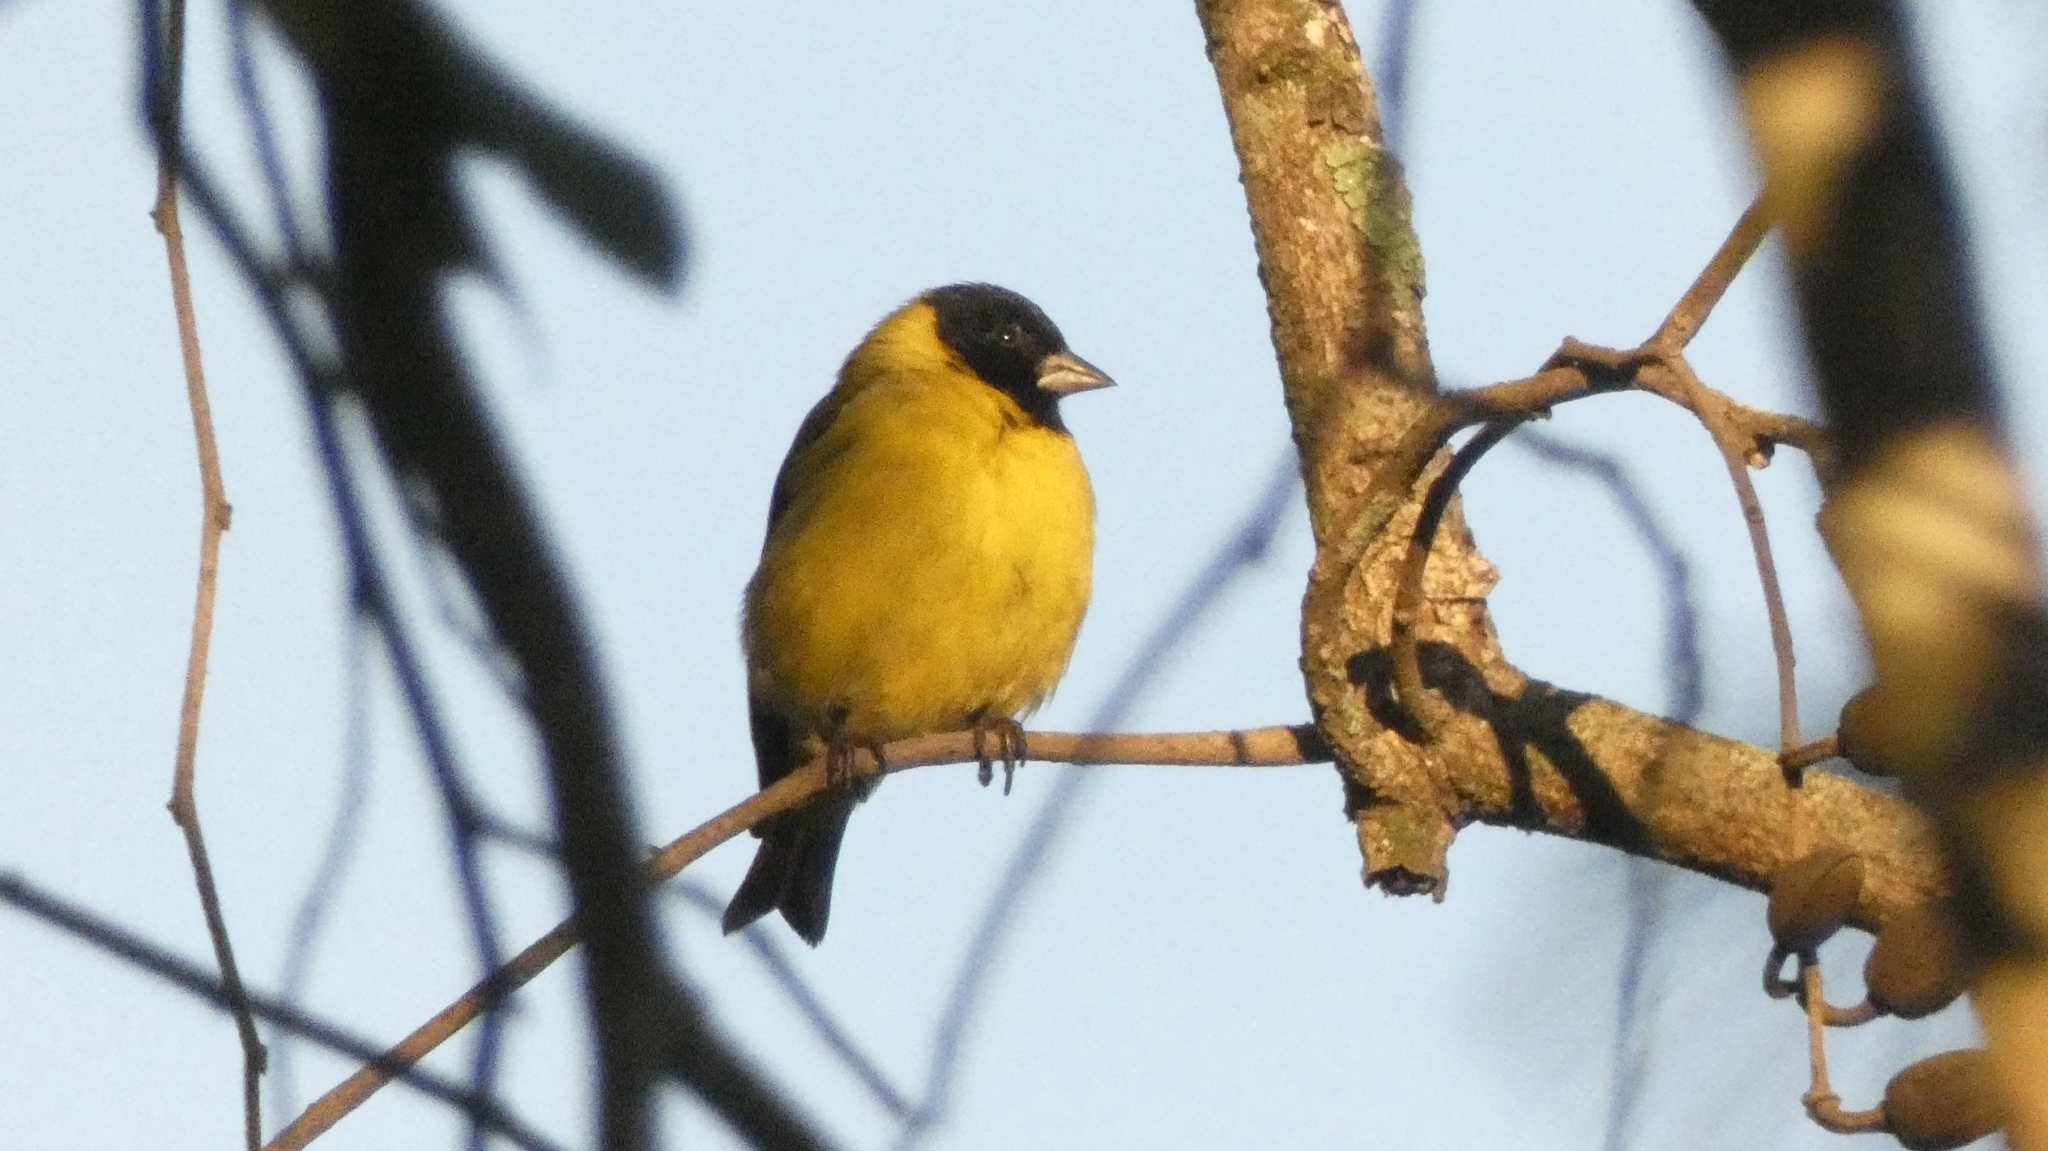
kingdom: Animalia
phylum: Chordata
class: Aves
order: Passeriformes
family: Fringillidae
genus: Spinus
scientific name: Spinus magellanicus
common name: Hooded siskin
